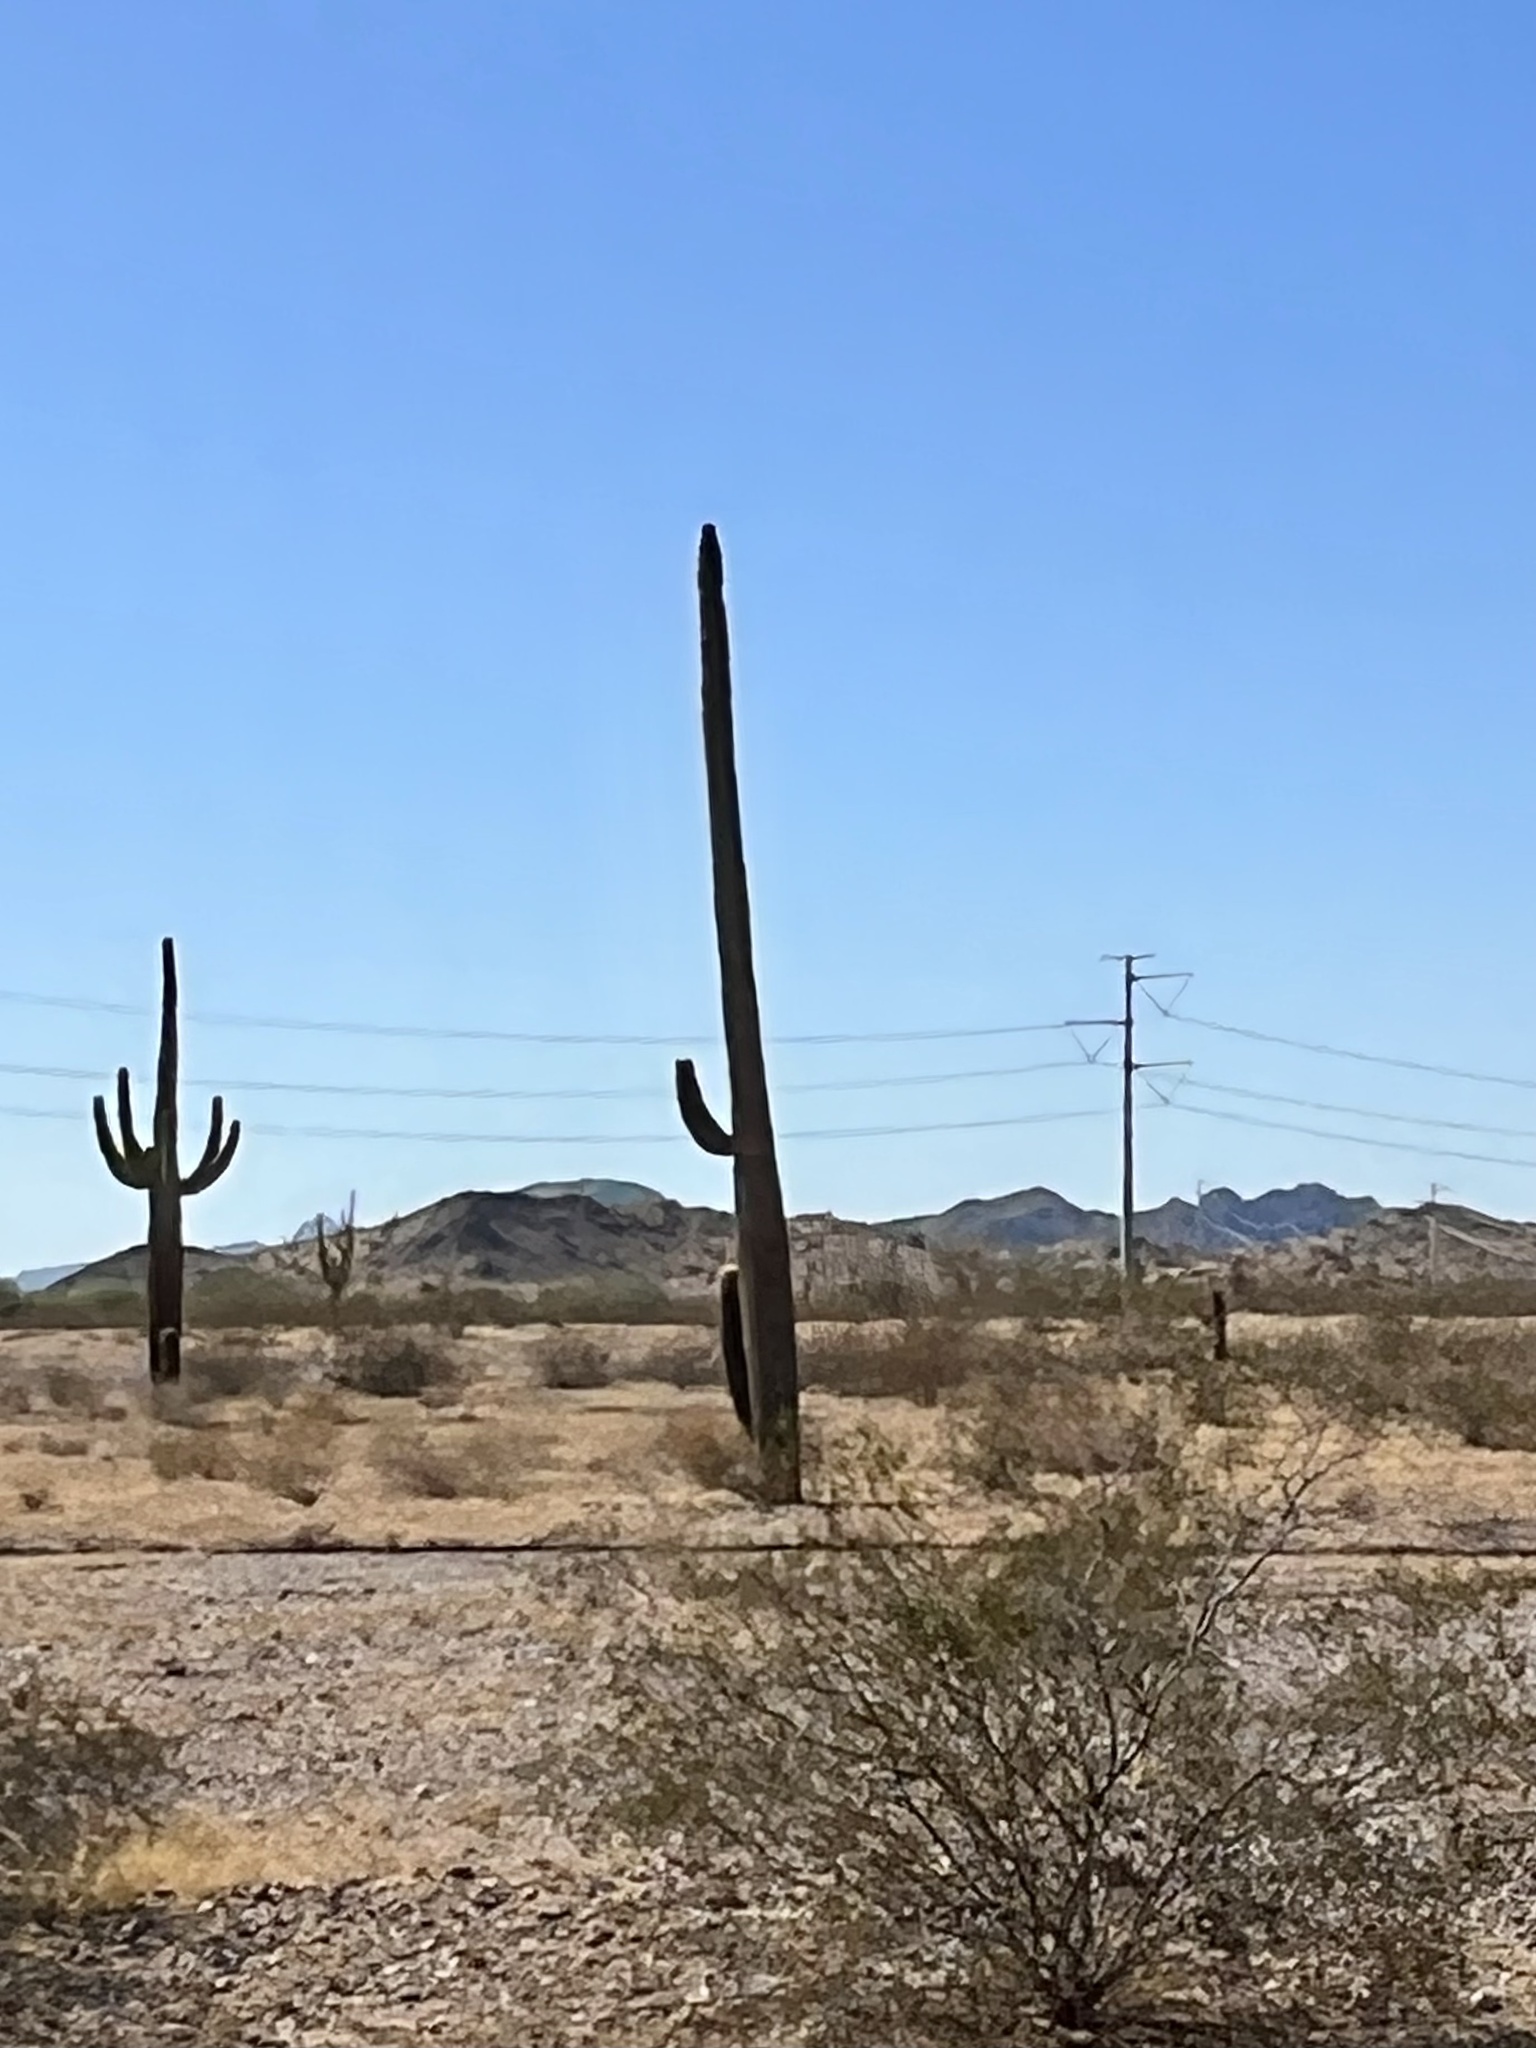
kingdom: Plantae
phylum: Tracheophyta
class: Magnoliopsida
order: Caryophyllales
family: Cactaceae
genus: Carnegiea
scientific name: Carnegiea gigantea
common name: Saguaro
